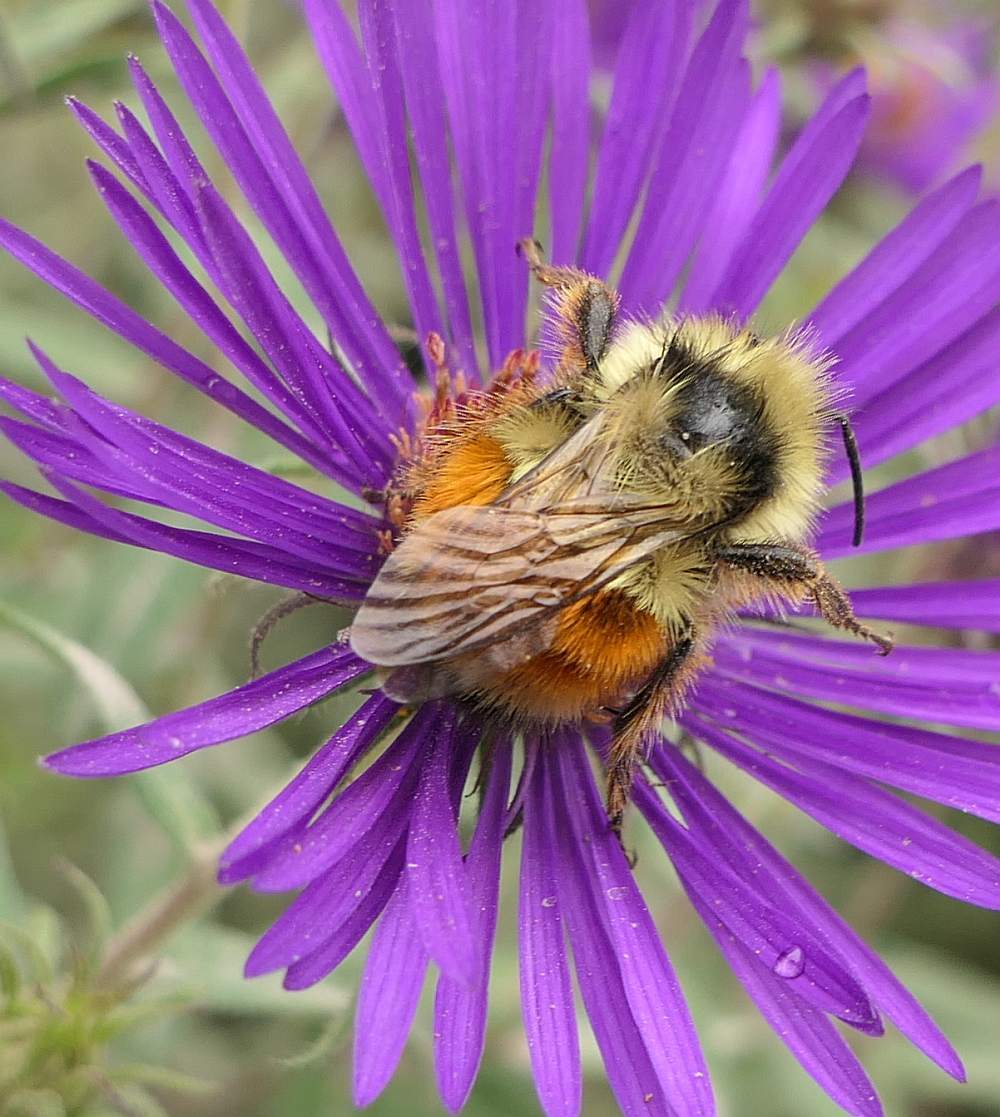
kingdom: Animalia
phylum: Arthropoda
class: Insecta
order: Hymenoptera
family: Apidae
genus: Bombus
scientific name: Bombus ternarius
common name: Tri-colored bumble bee
